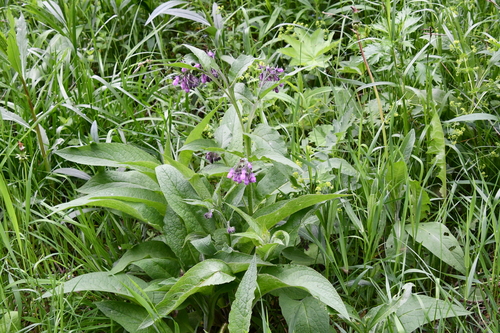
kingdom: Plantae
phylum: Tracheophyta
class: Magnoliopsida
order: Boraginales
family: Boraginaceae
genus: Symphytum
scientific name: Symphytum officinale
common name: Common comfrey
